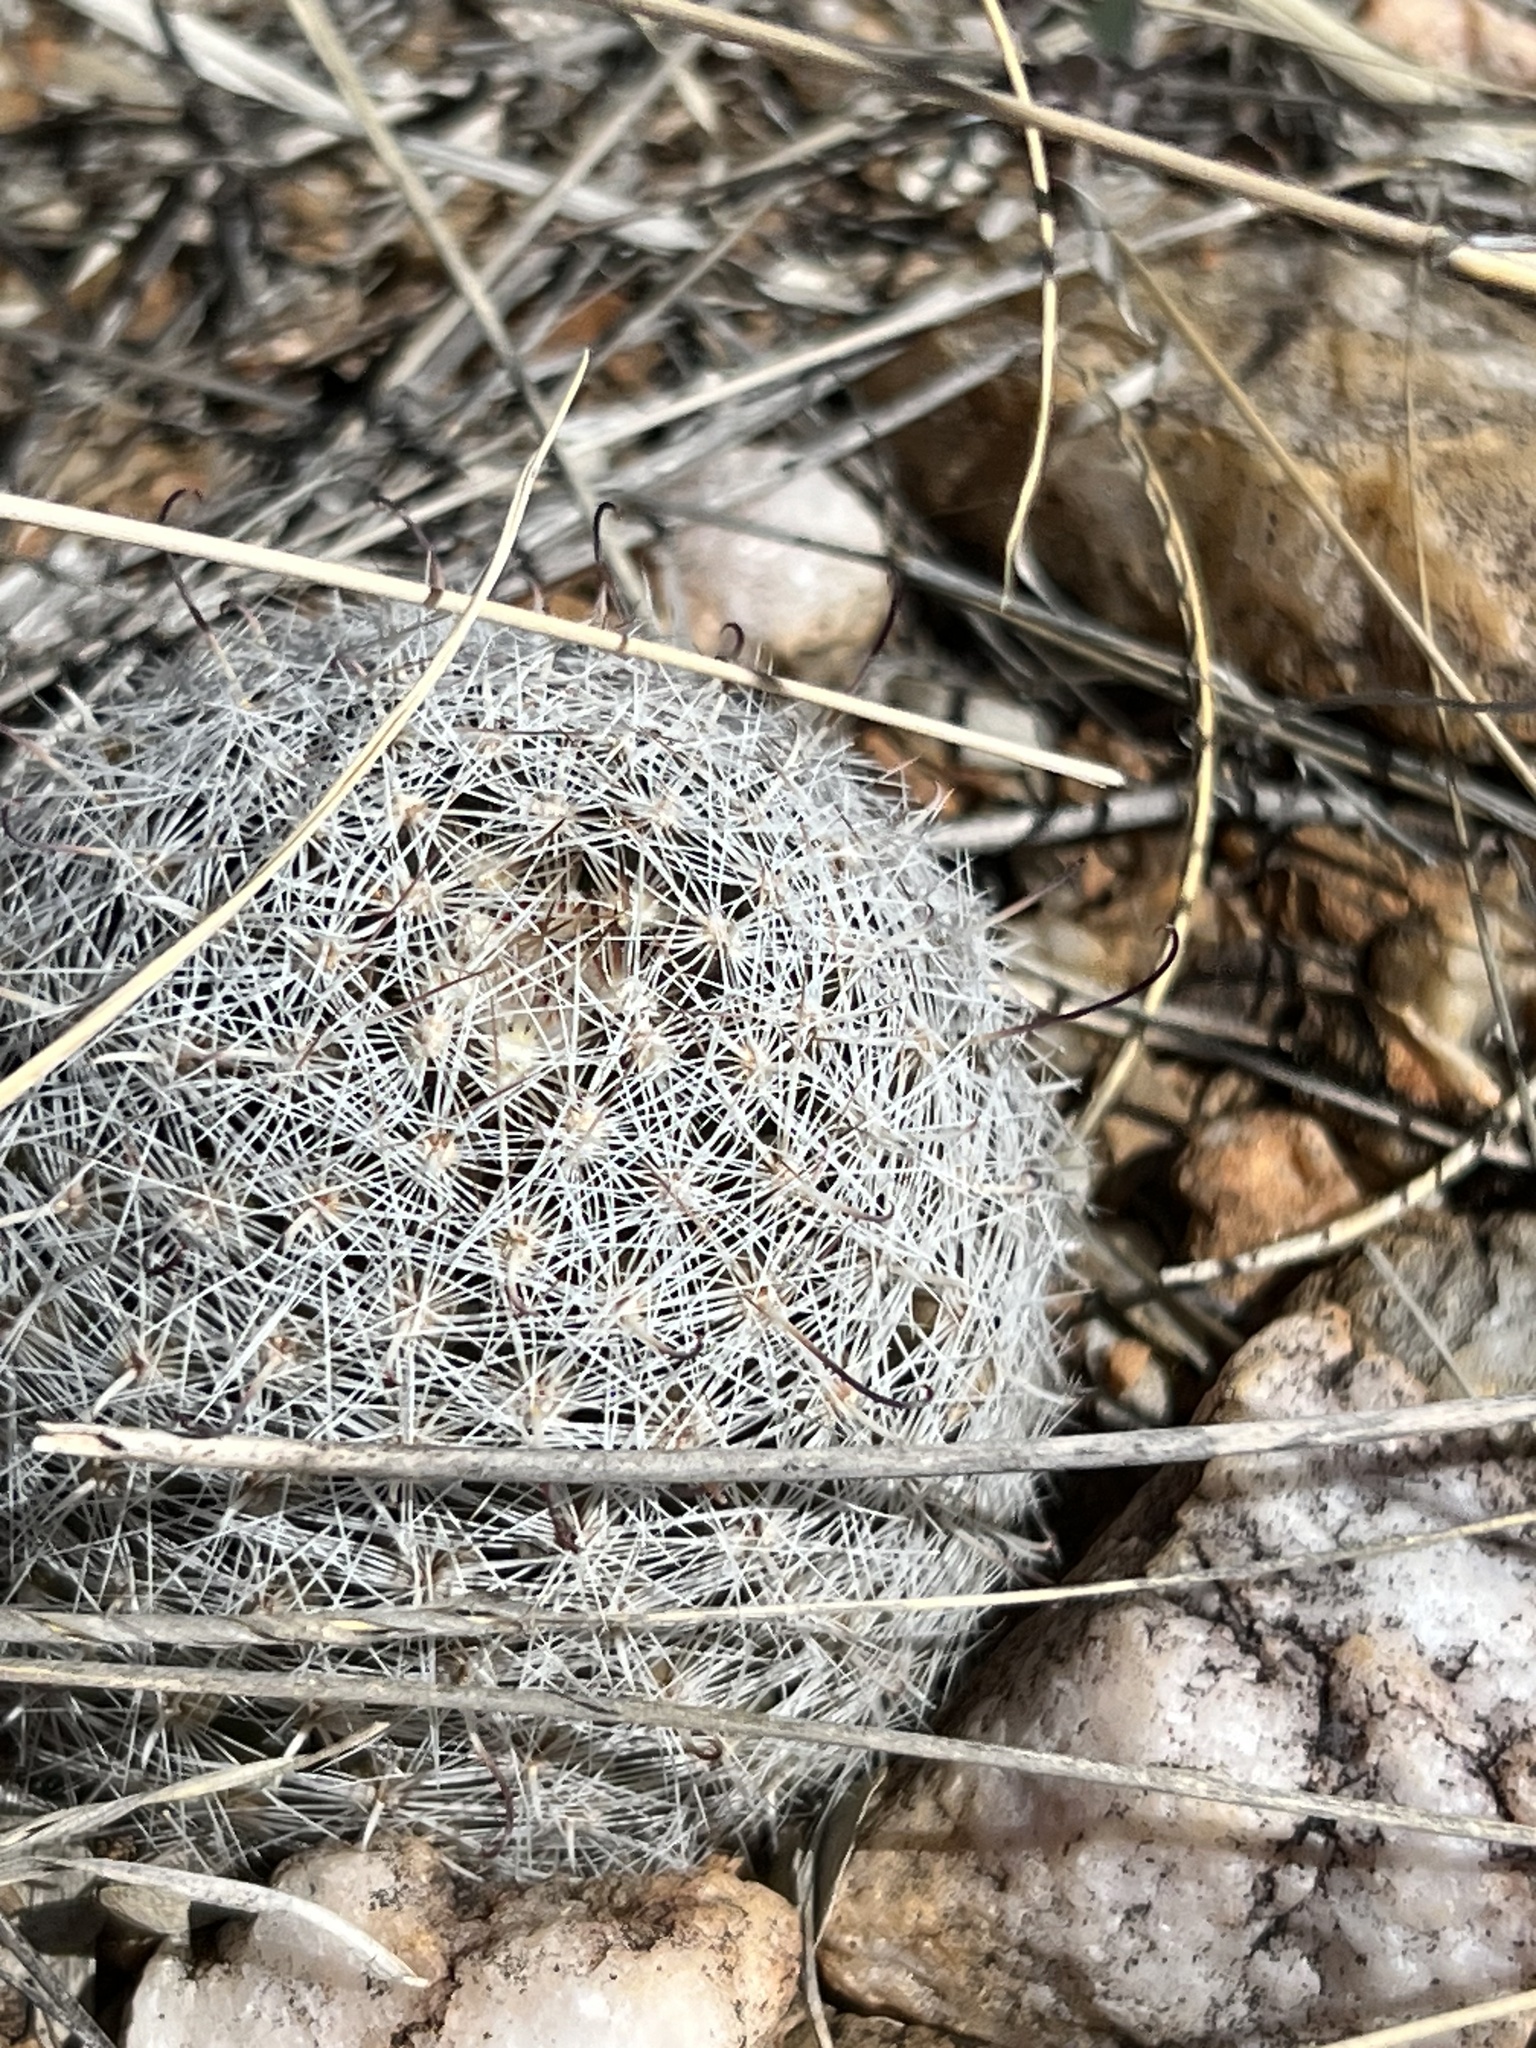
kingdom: Plantae
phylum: Tracheophyta
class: Magnoliopsida
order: Caryophyllales
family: Cactaceae
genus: Cochemiea
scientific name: Cochemiea grahamii
